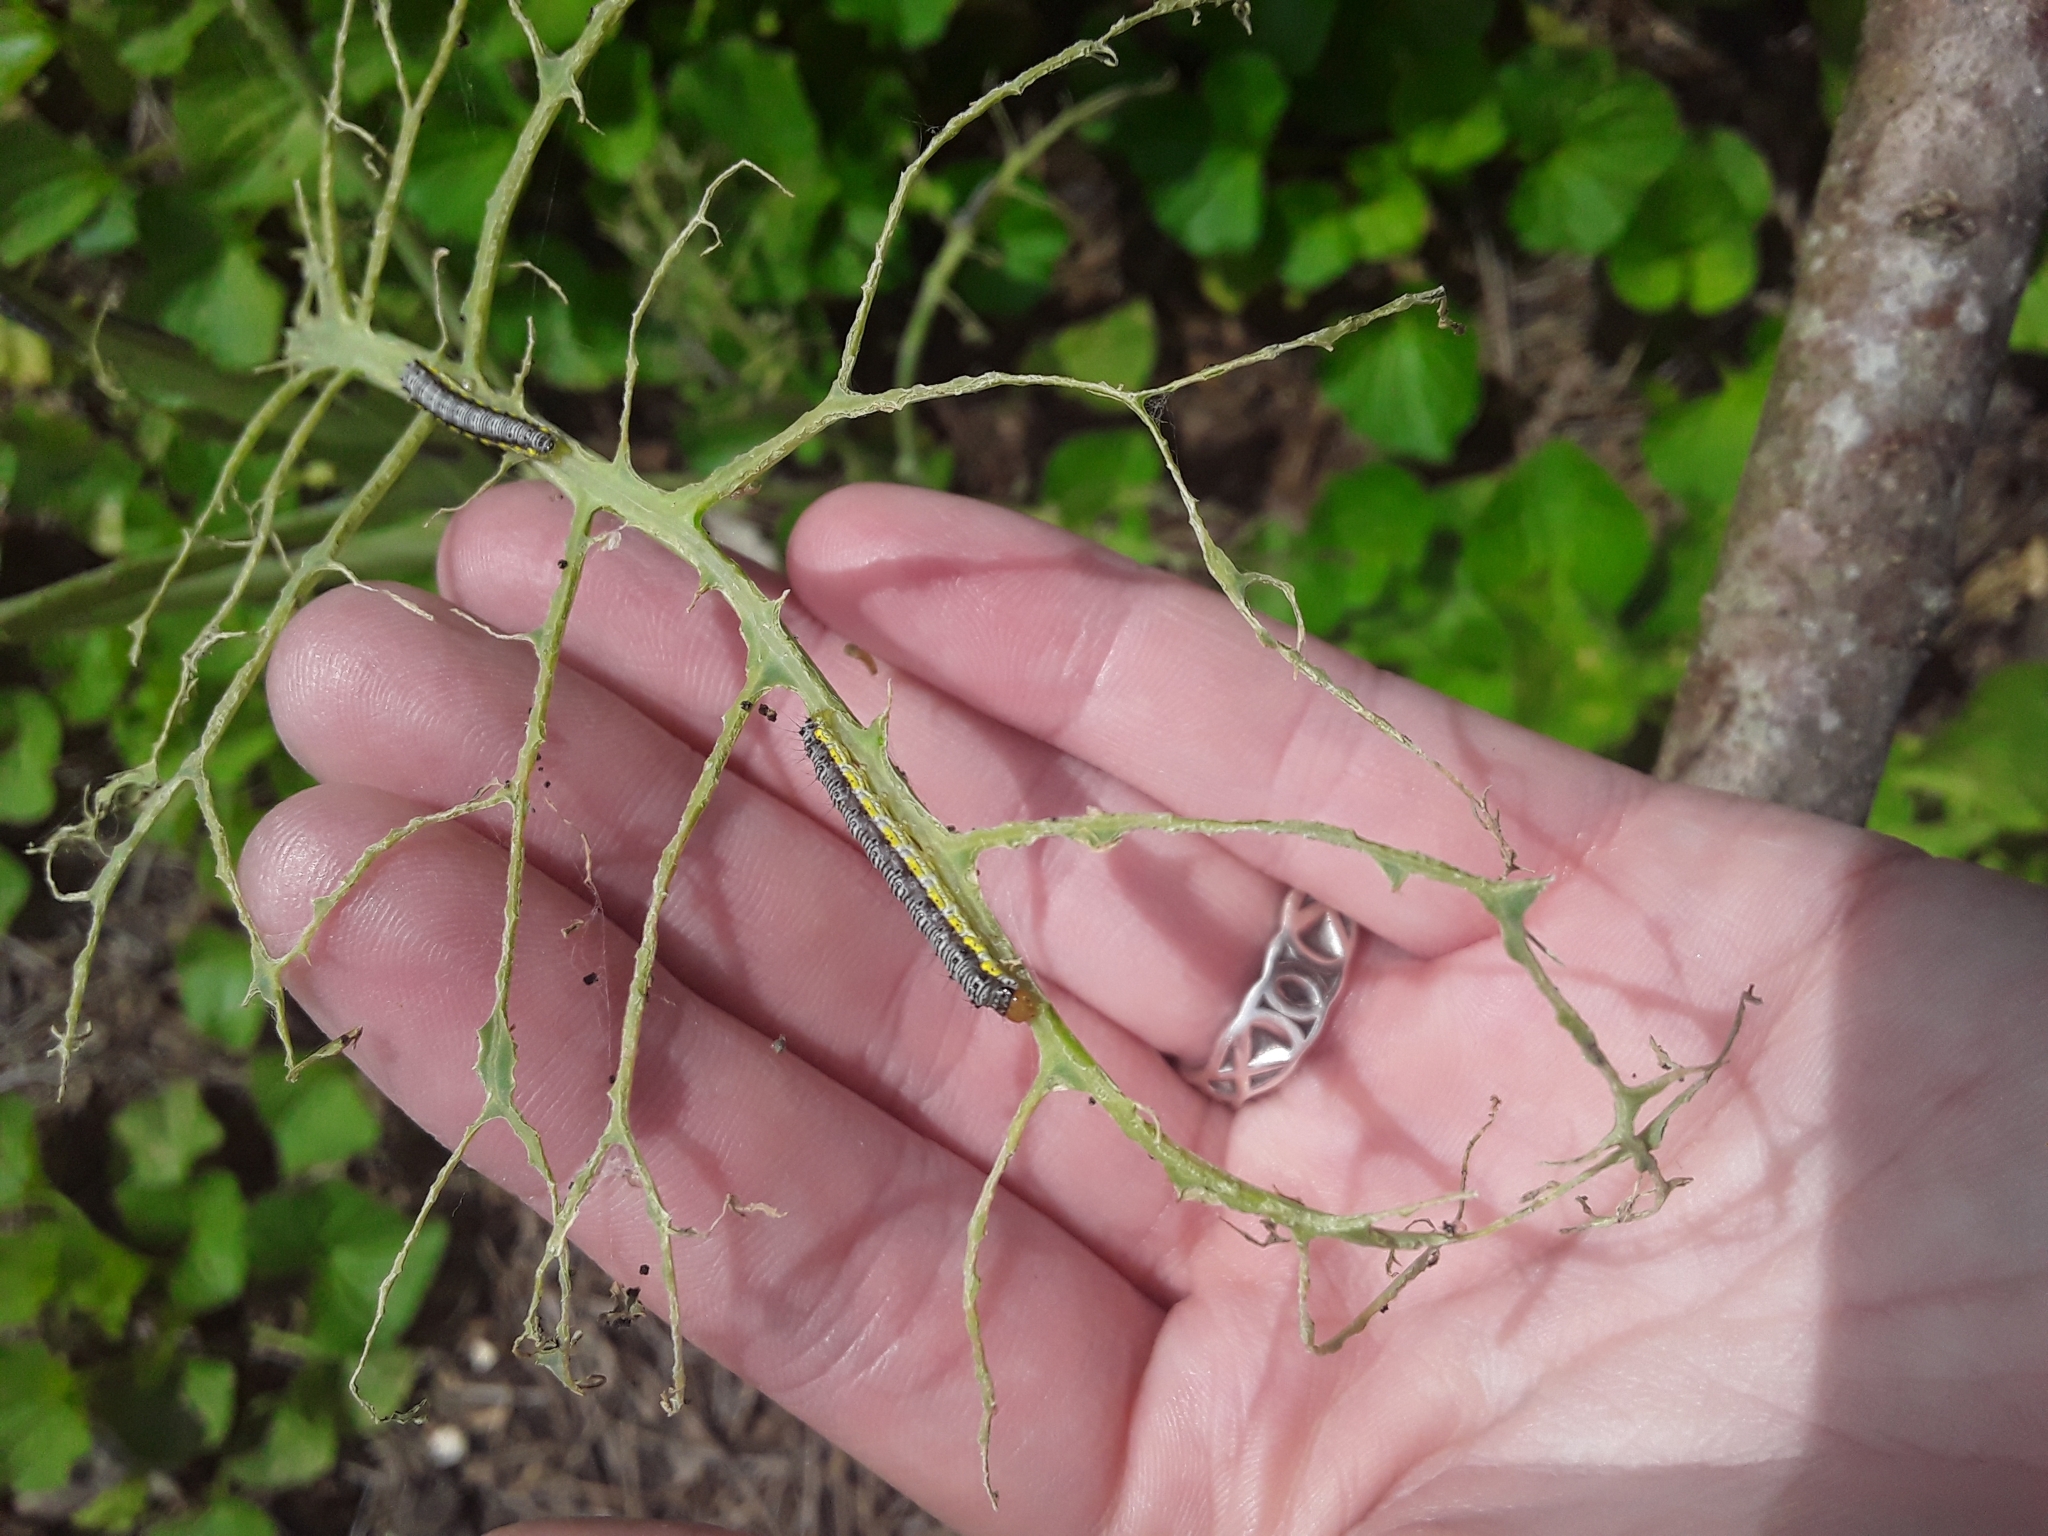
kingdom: Animalia
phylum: Arthropoda
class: Insecta
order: Lepidoptera
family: Crambidae
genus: Evergestis
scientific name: Evergestis rimosalis
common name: Cross-striped cabbageworm moth
